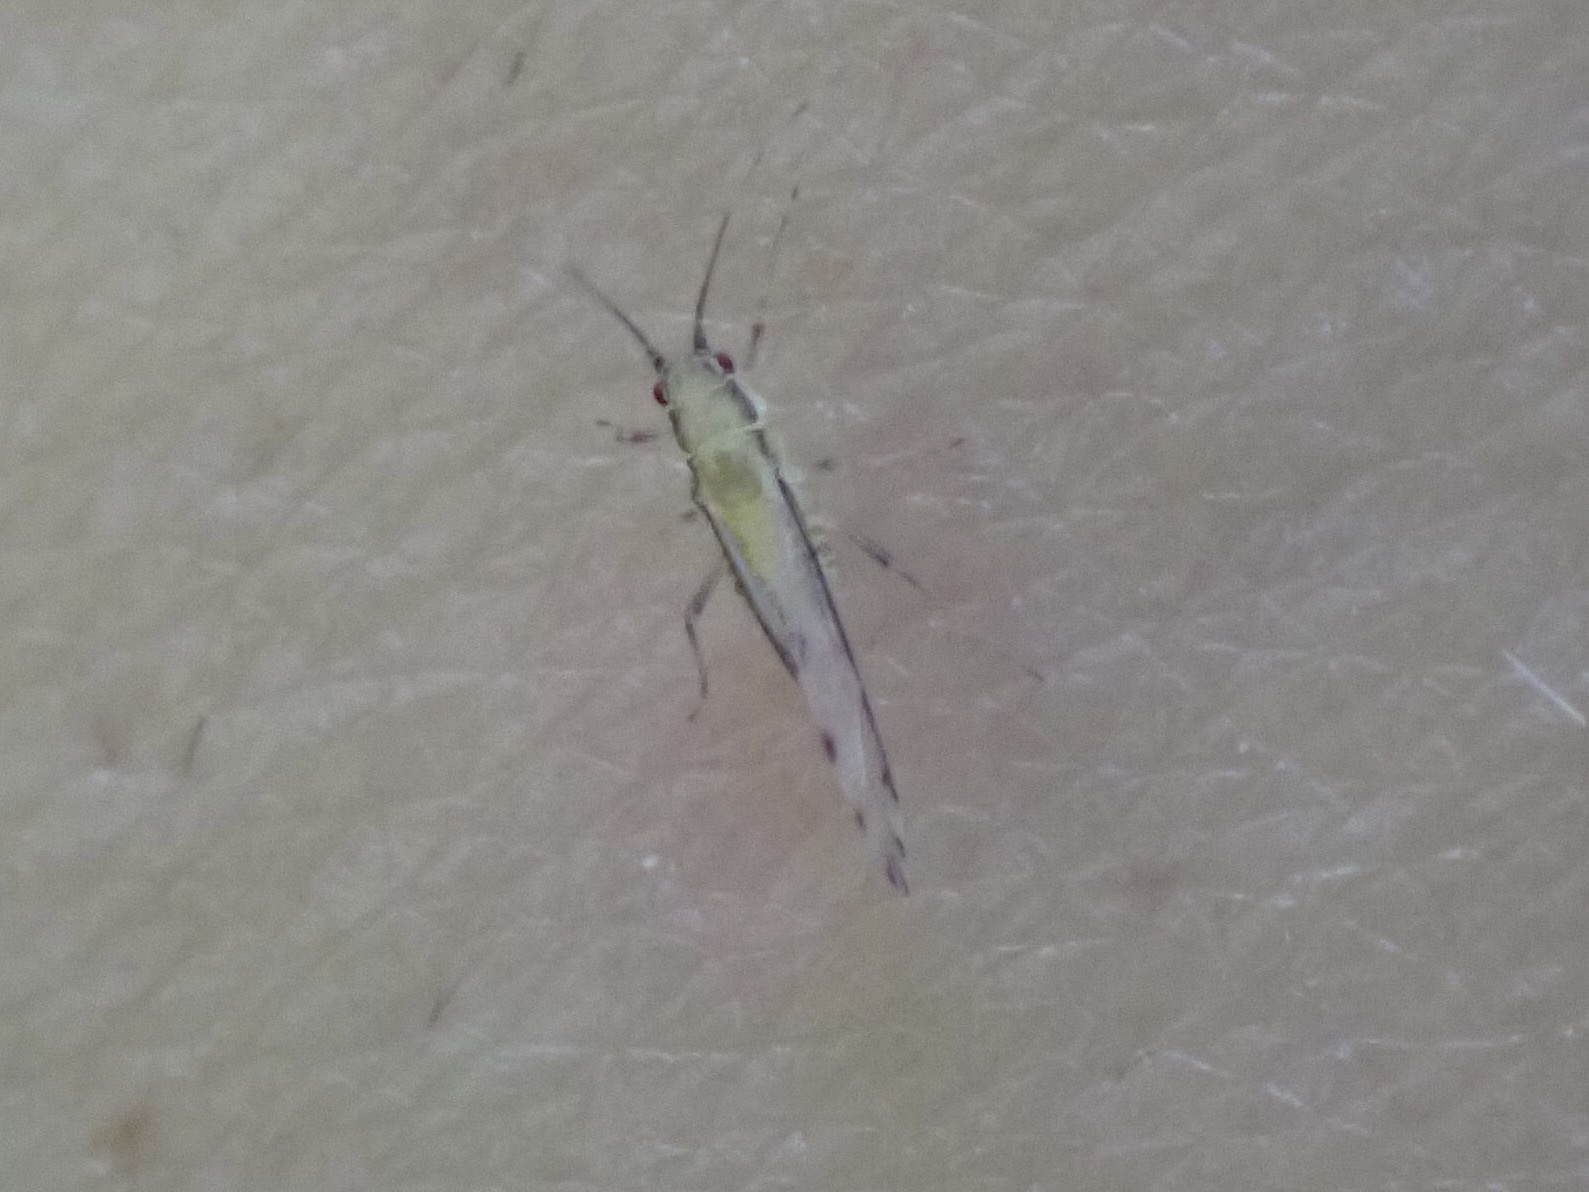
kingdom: Animalia
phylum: Arthropoda
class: Insecta
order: Hemiptera
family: Aphididae
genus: Eucallipterus
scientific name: Eucallipterus tiliae
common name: Aphid
